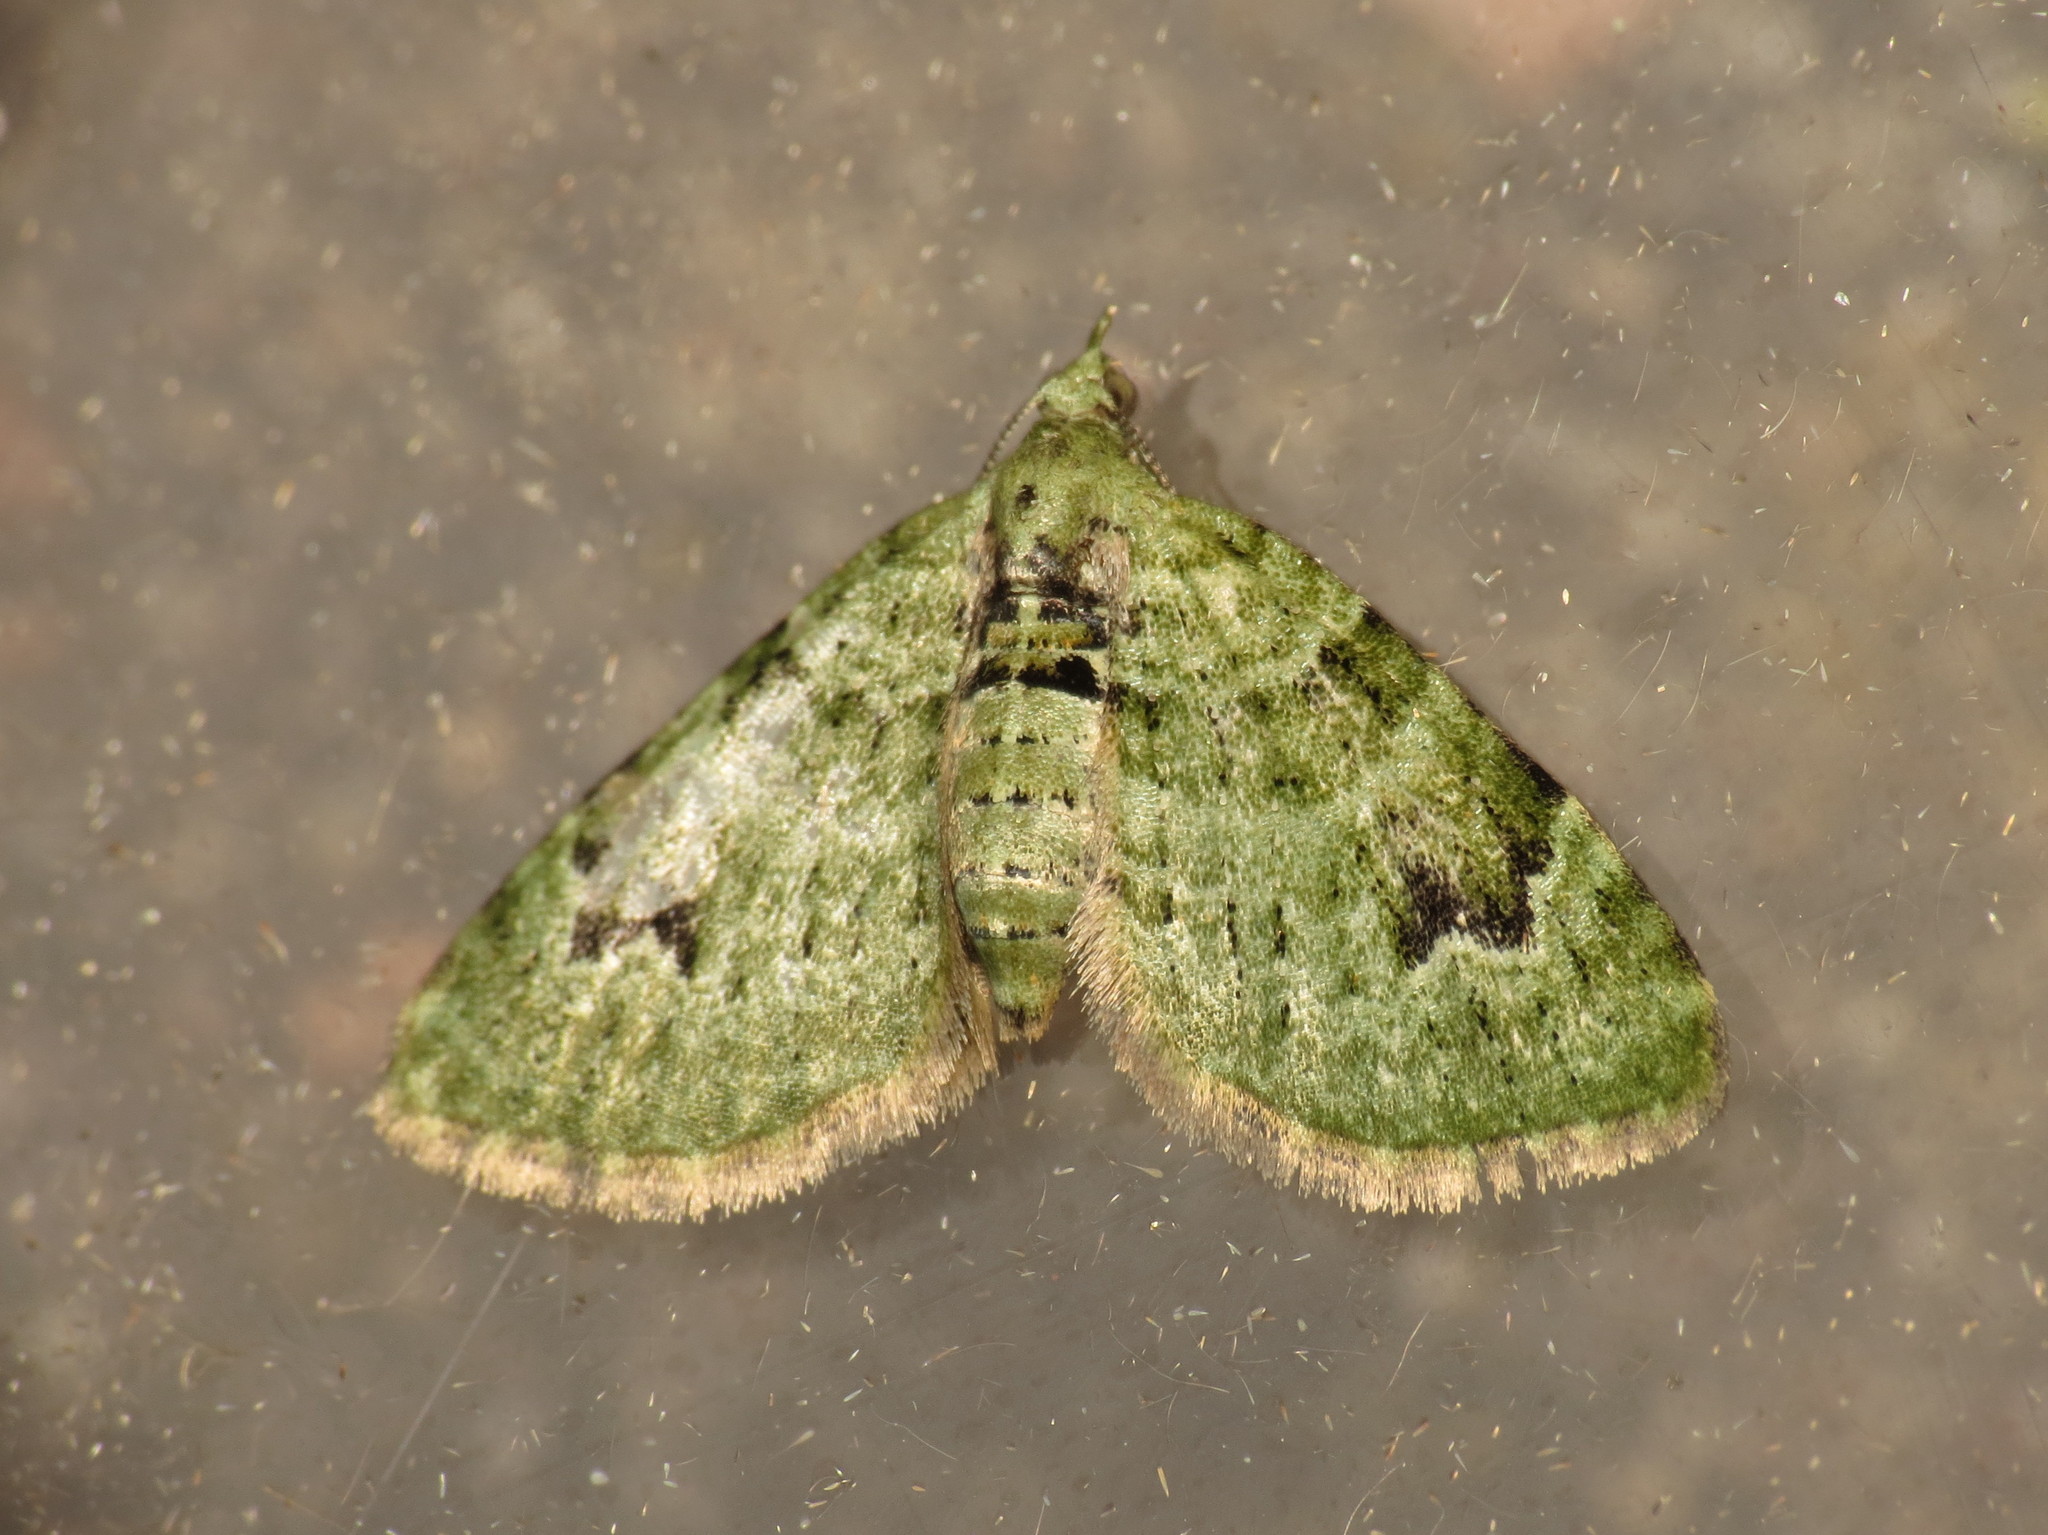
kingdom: Animalia
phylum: Arthropoda
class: Insecta
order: Lepidoptera
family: Geometridae
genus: Chloroclystis
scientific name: Chloroclystis v-ata
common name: V-pug
